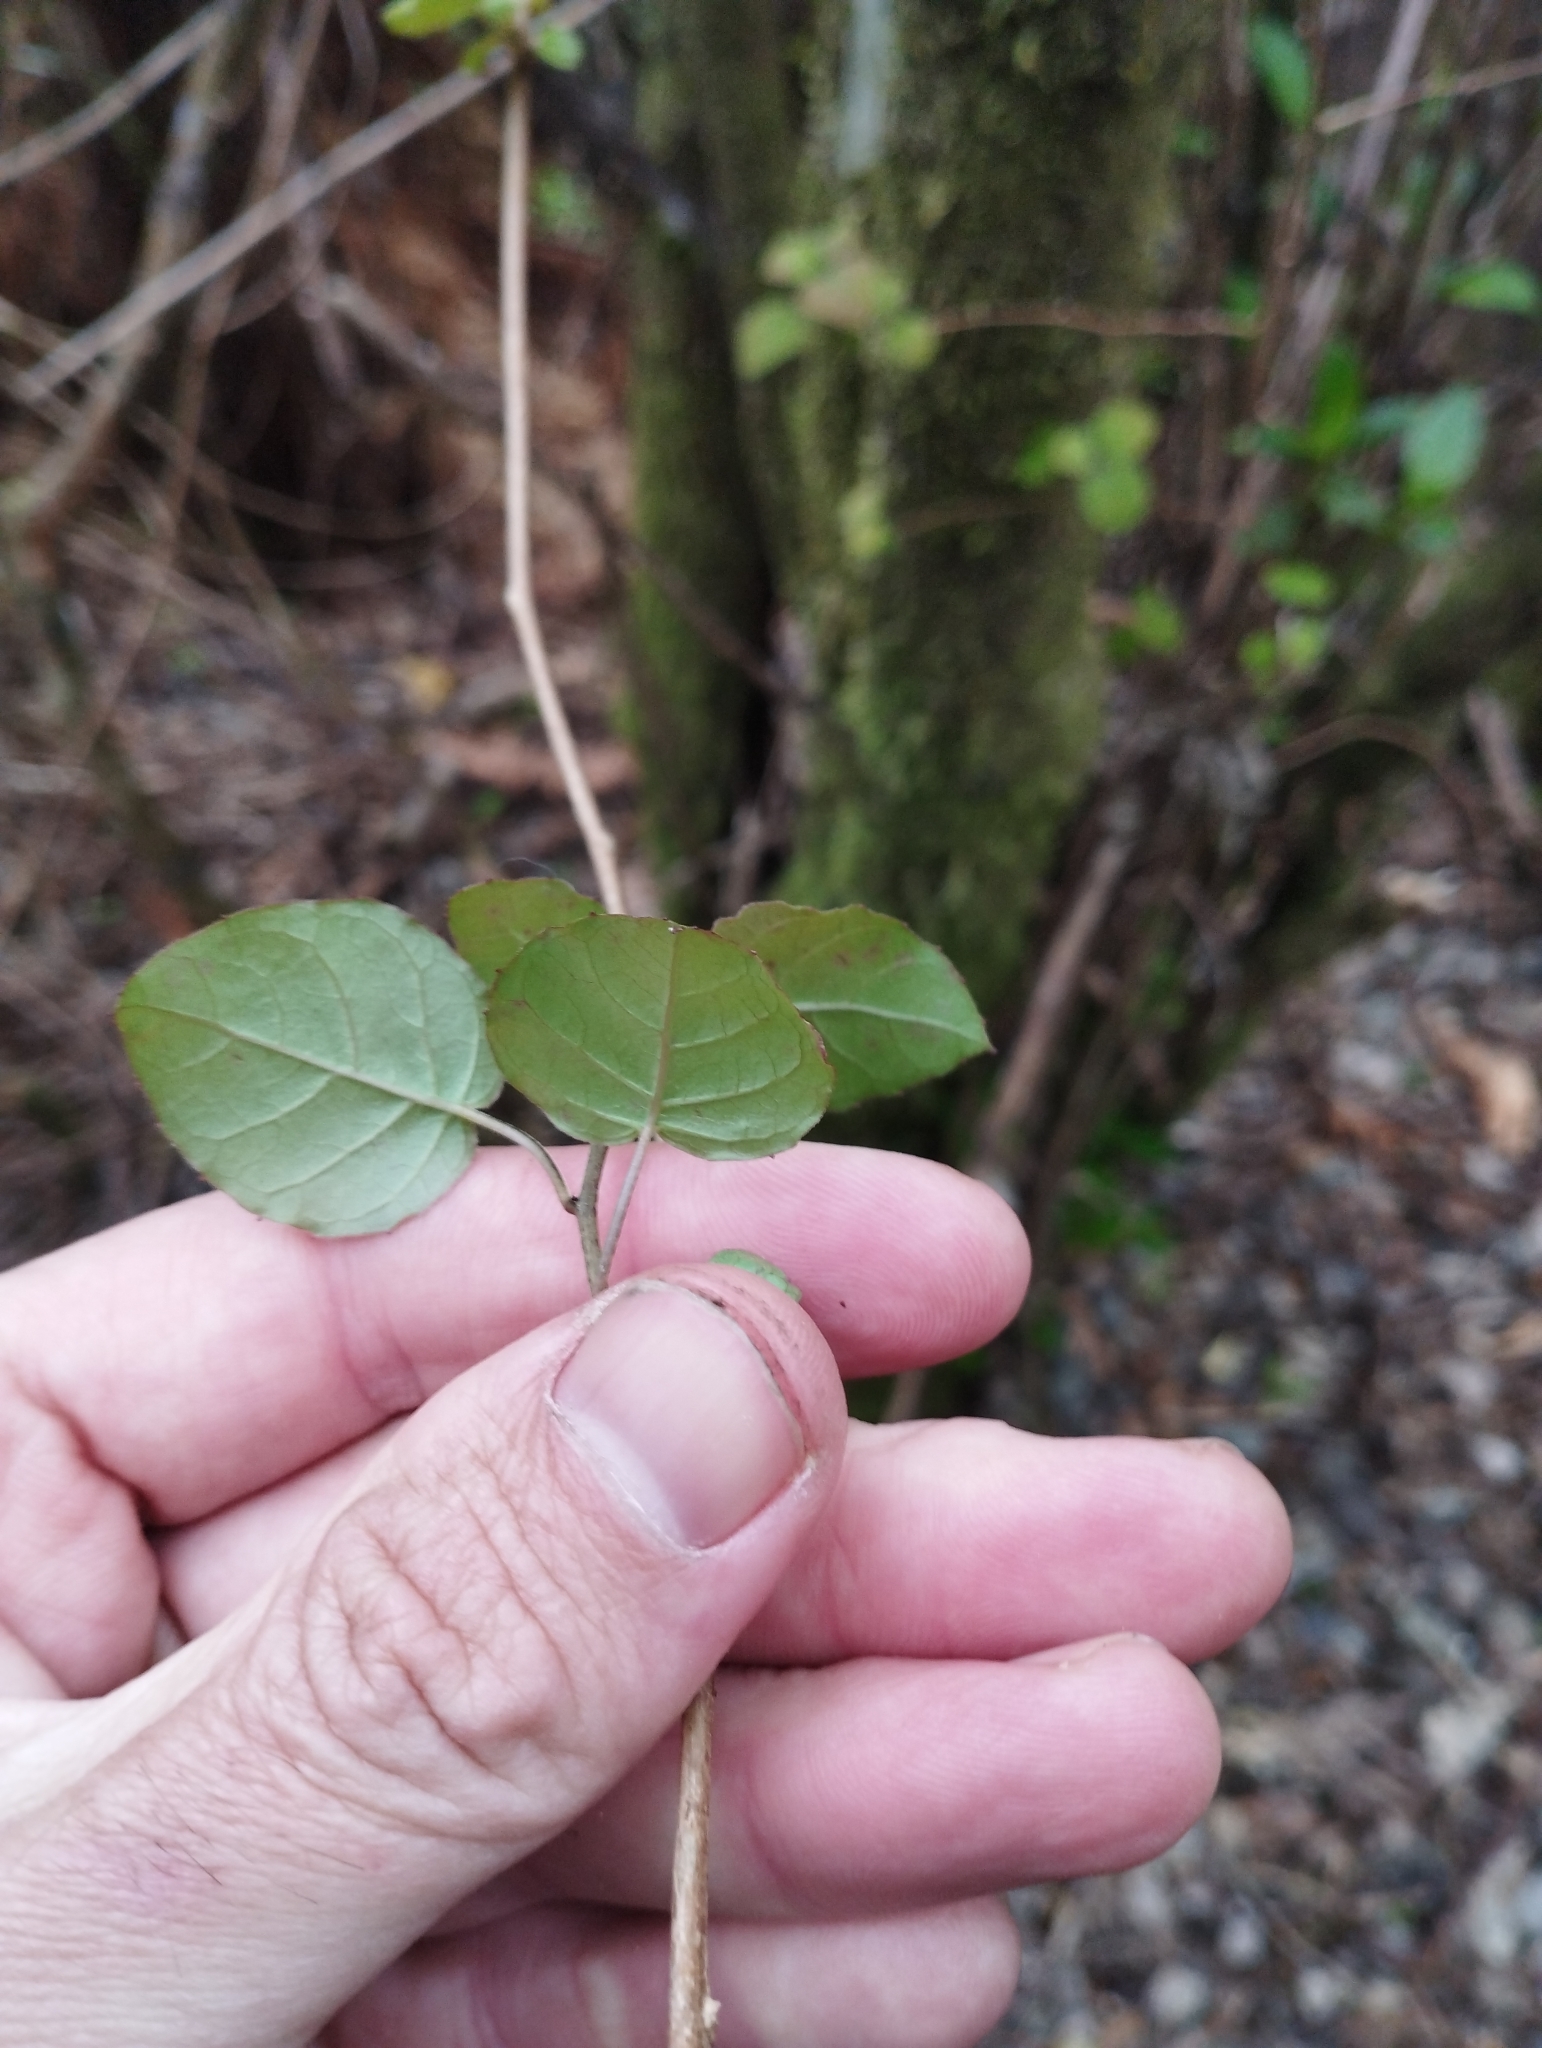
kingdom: Plantae
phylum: Tracheophyta
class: Magnoliopsida
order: Myrtales
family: Onagraceae
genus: Fuchsia
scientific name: Fuchsia perscandens
